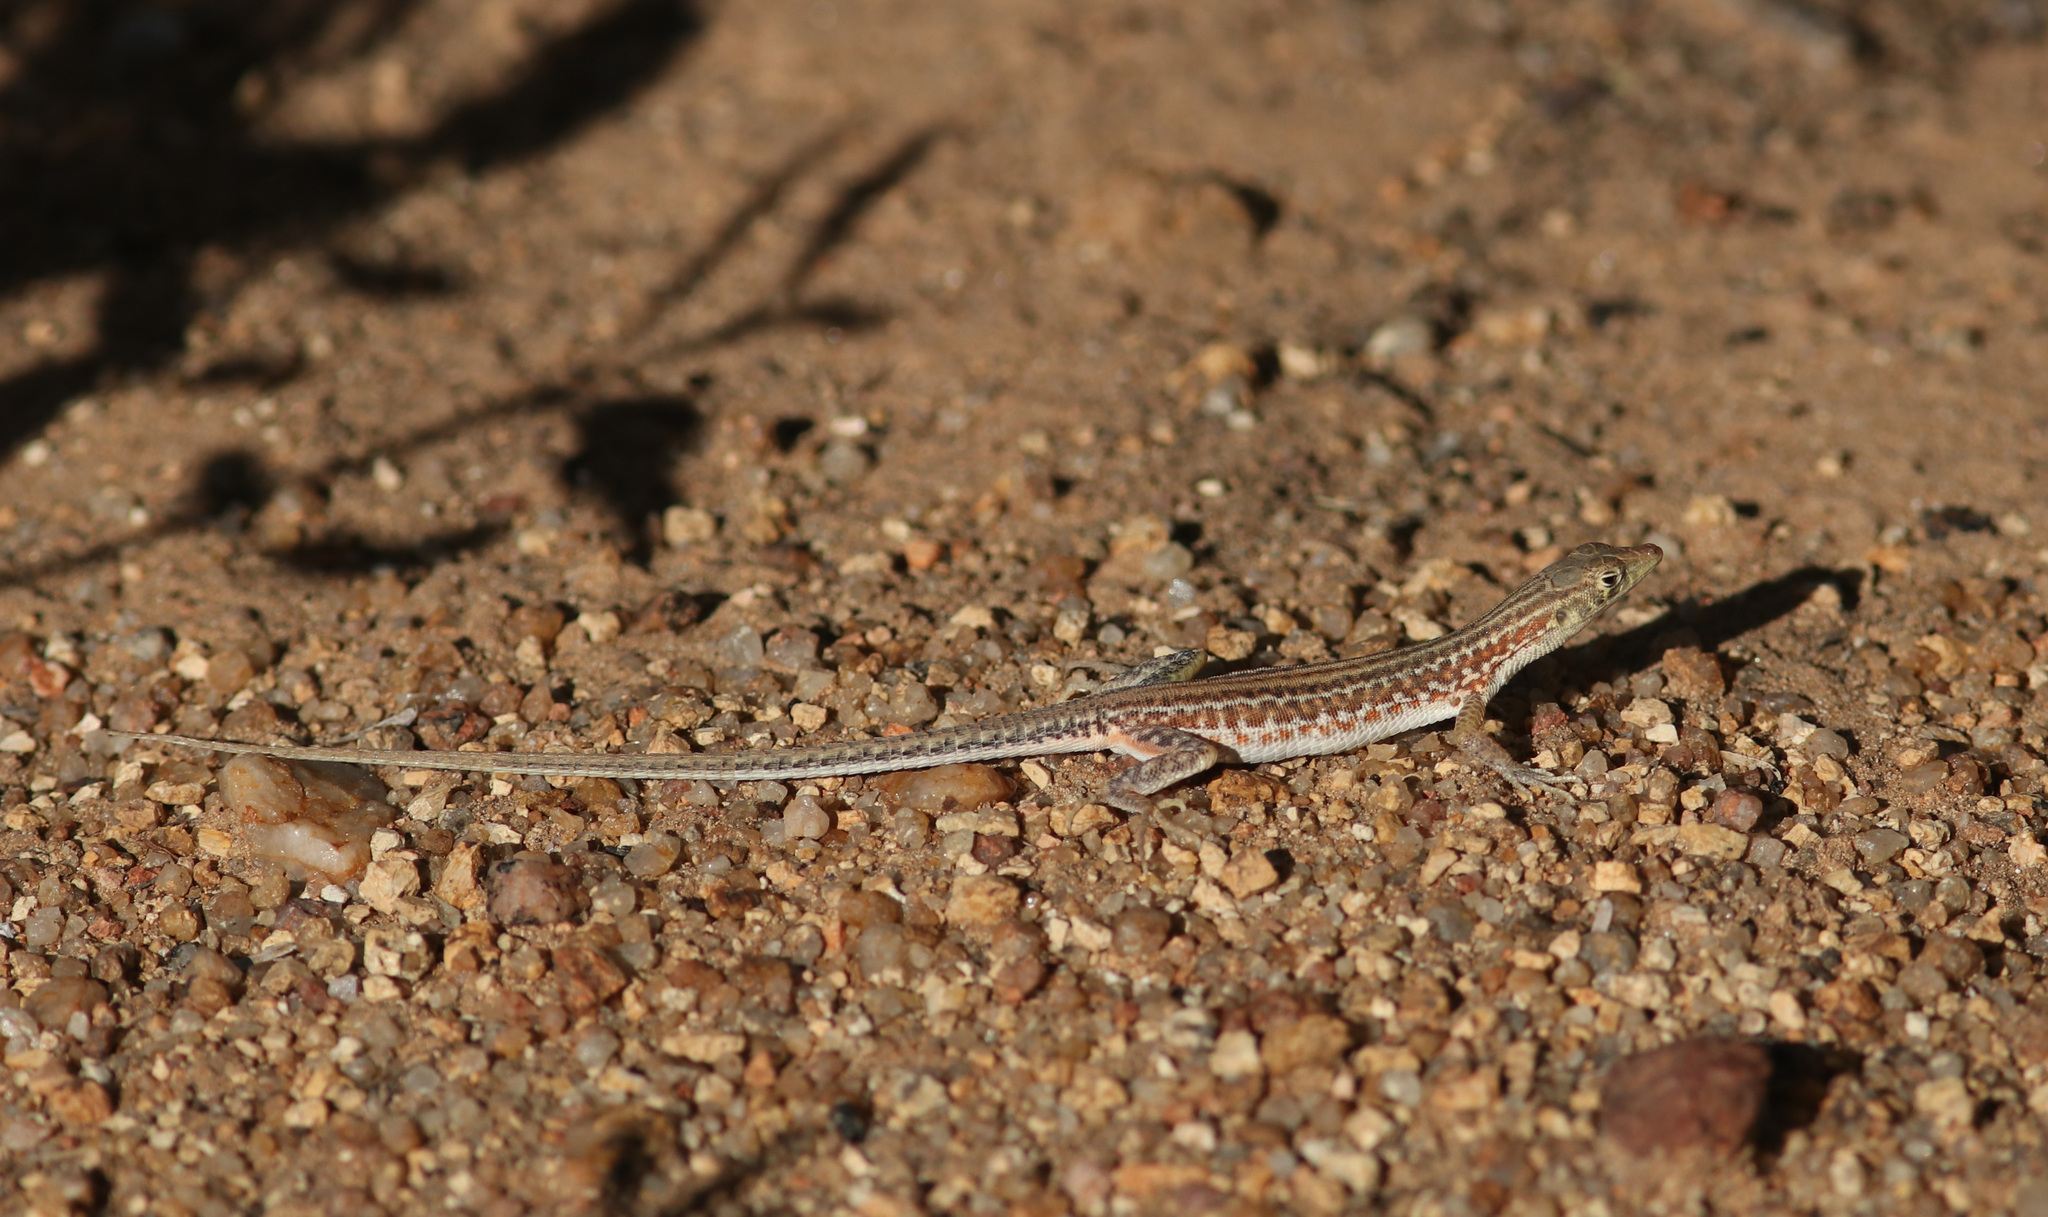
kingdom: Animalia
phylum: Chordata
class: Squamata
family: Lacertidae
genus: Pedioplanis
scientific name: Pedioplanis namaquensis
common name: Namaqua sand lizard
